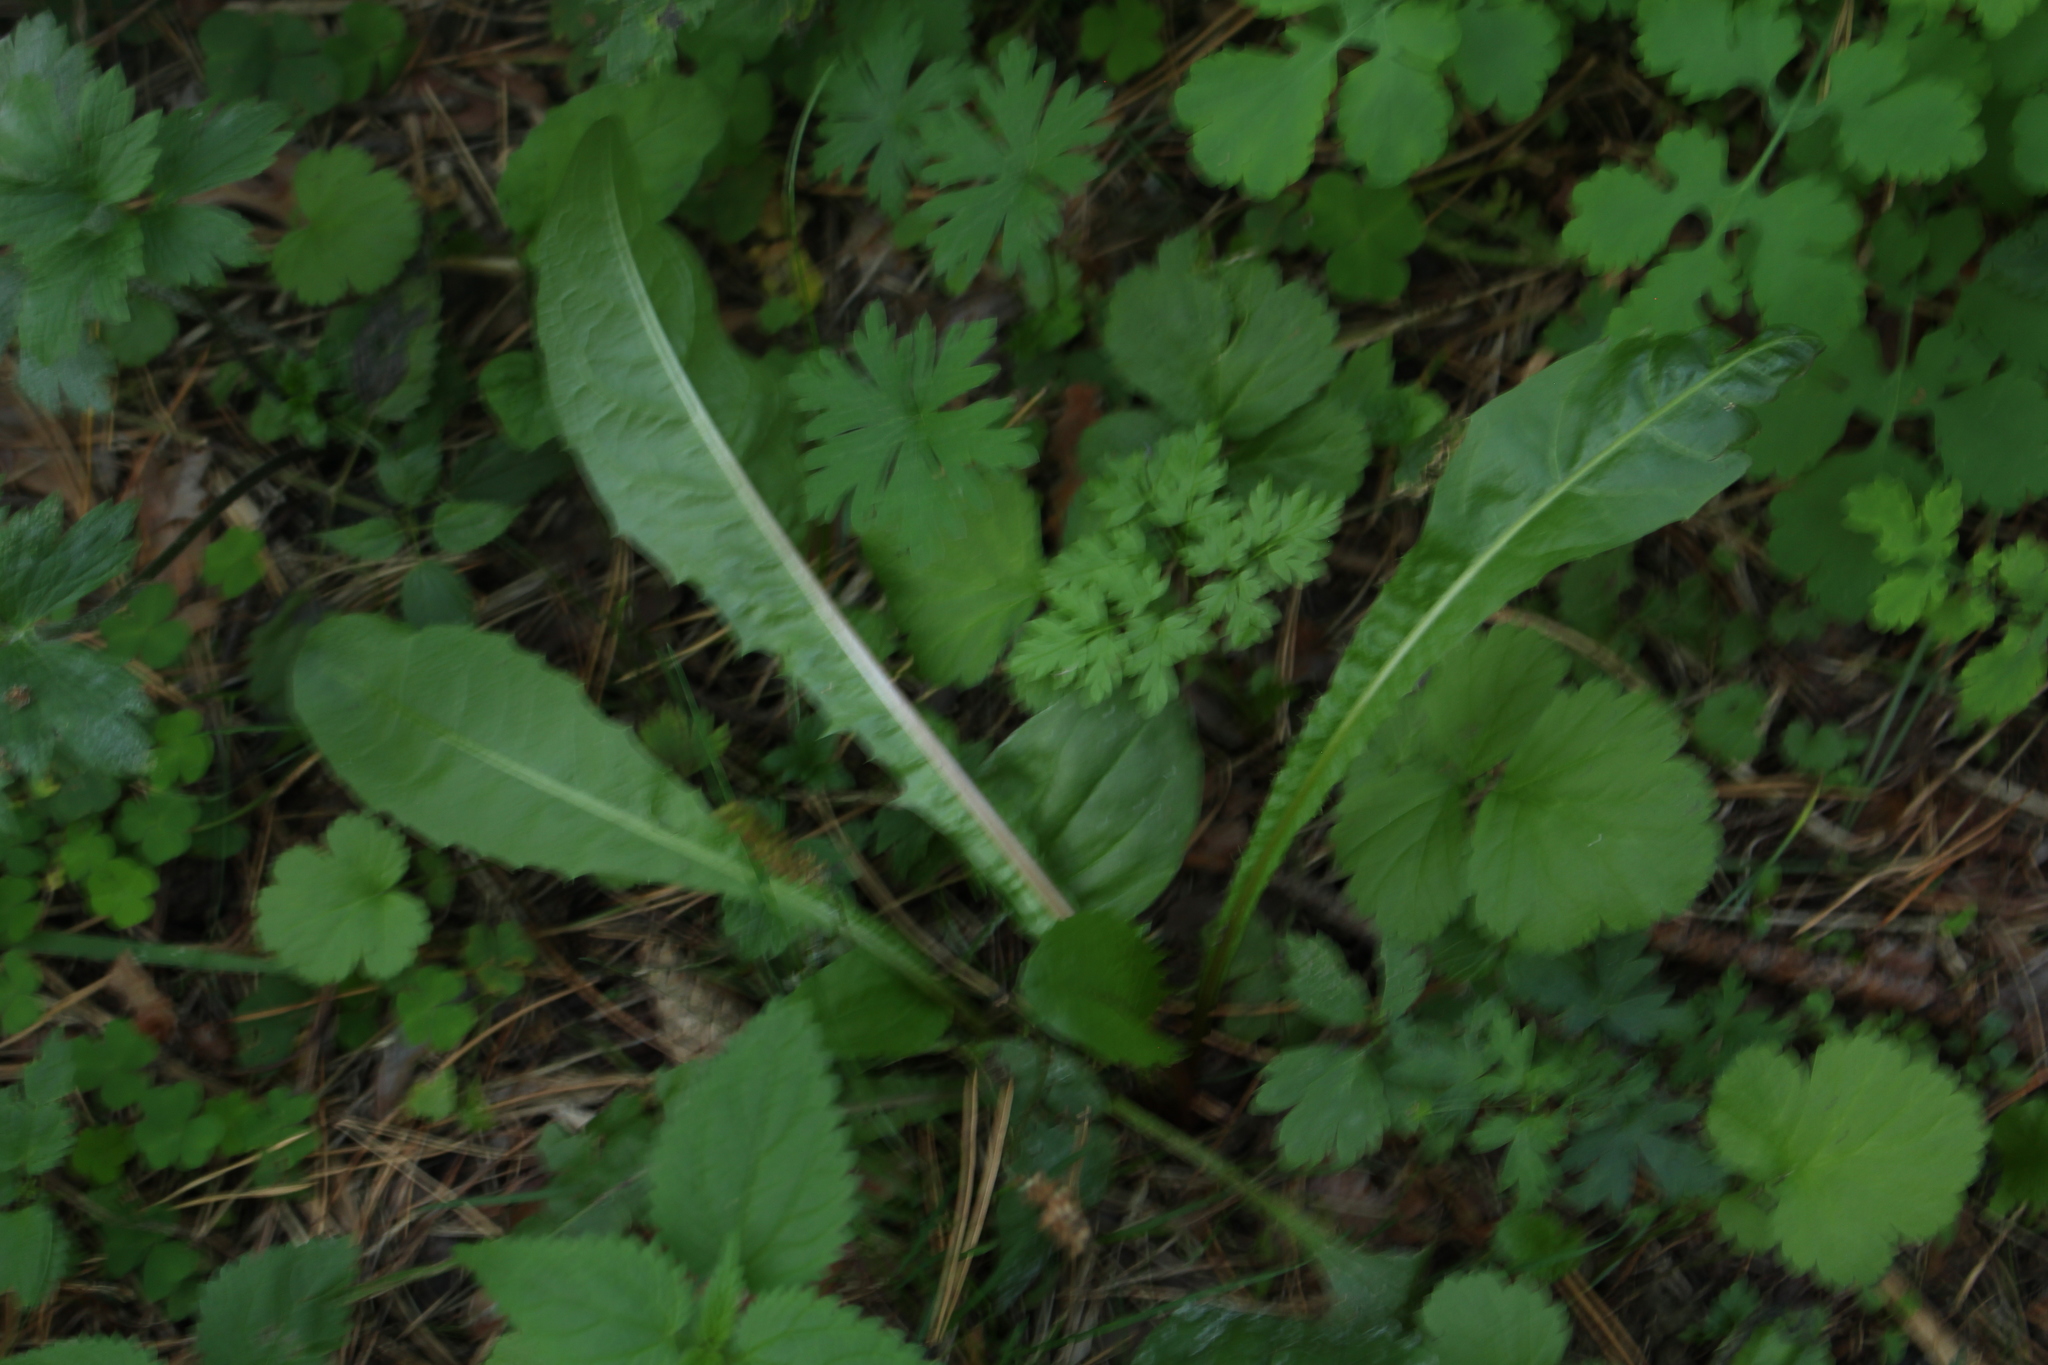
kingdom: Plantae
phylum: Tracheophyta
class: Magnoliopsida
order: Asterales
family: Asteraceae
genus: Taraxacum
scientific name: Taraxacum officinale
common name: Common dandelion
